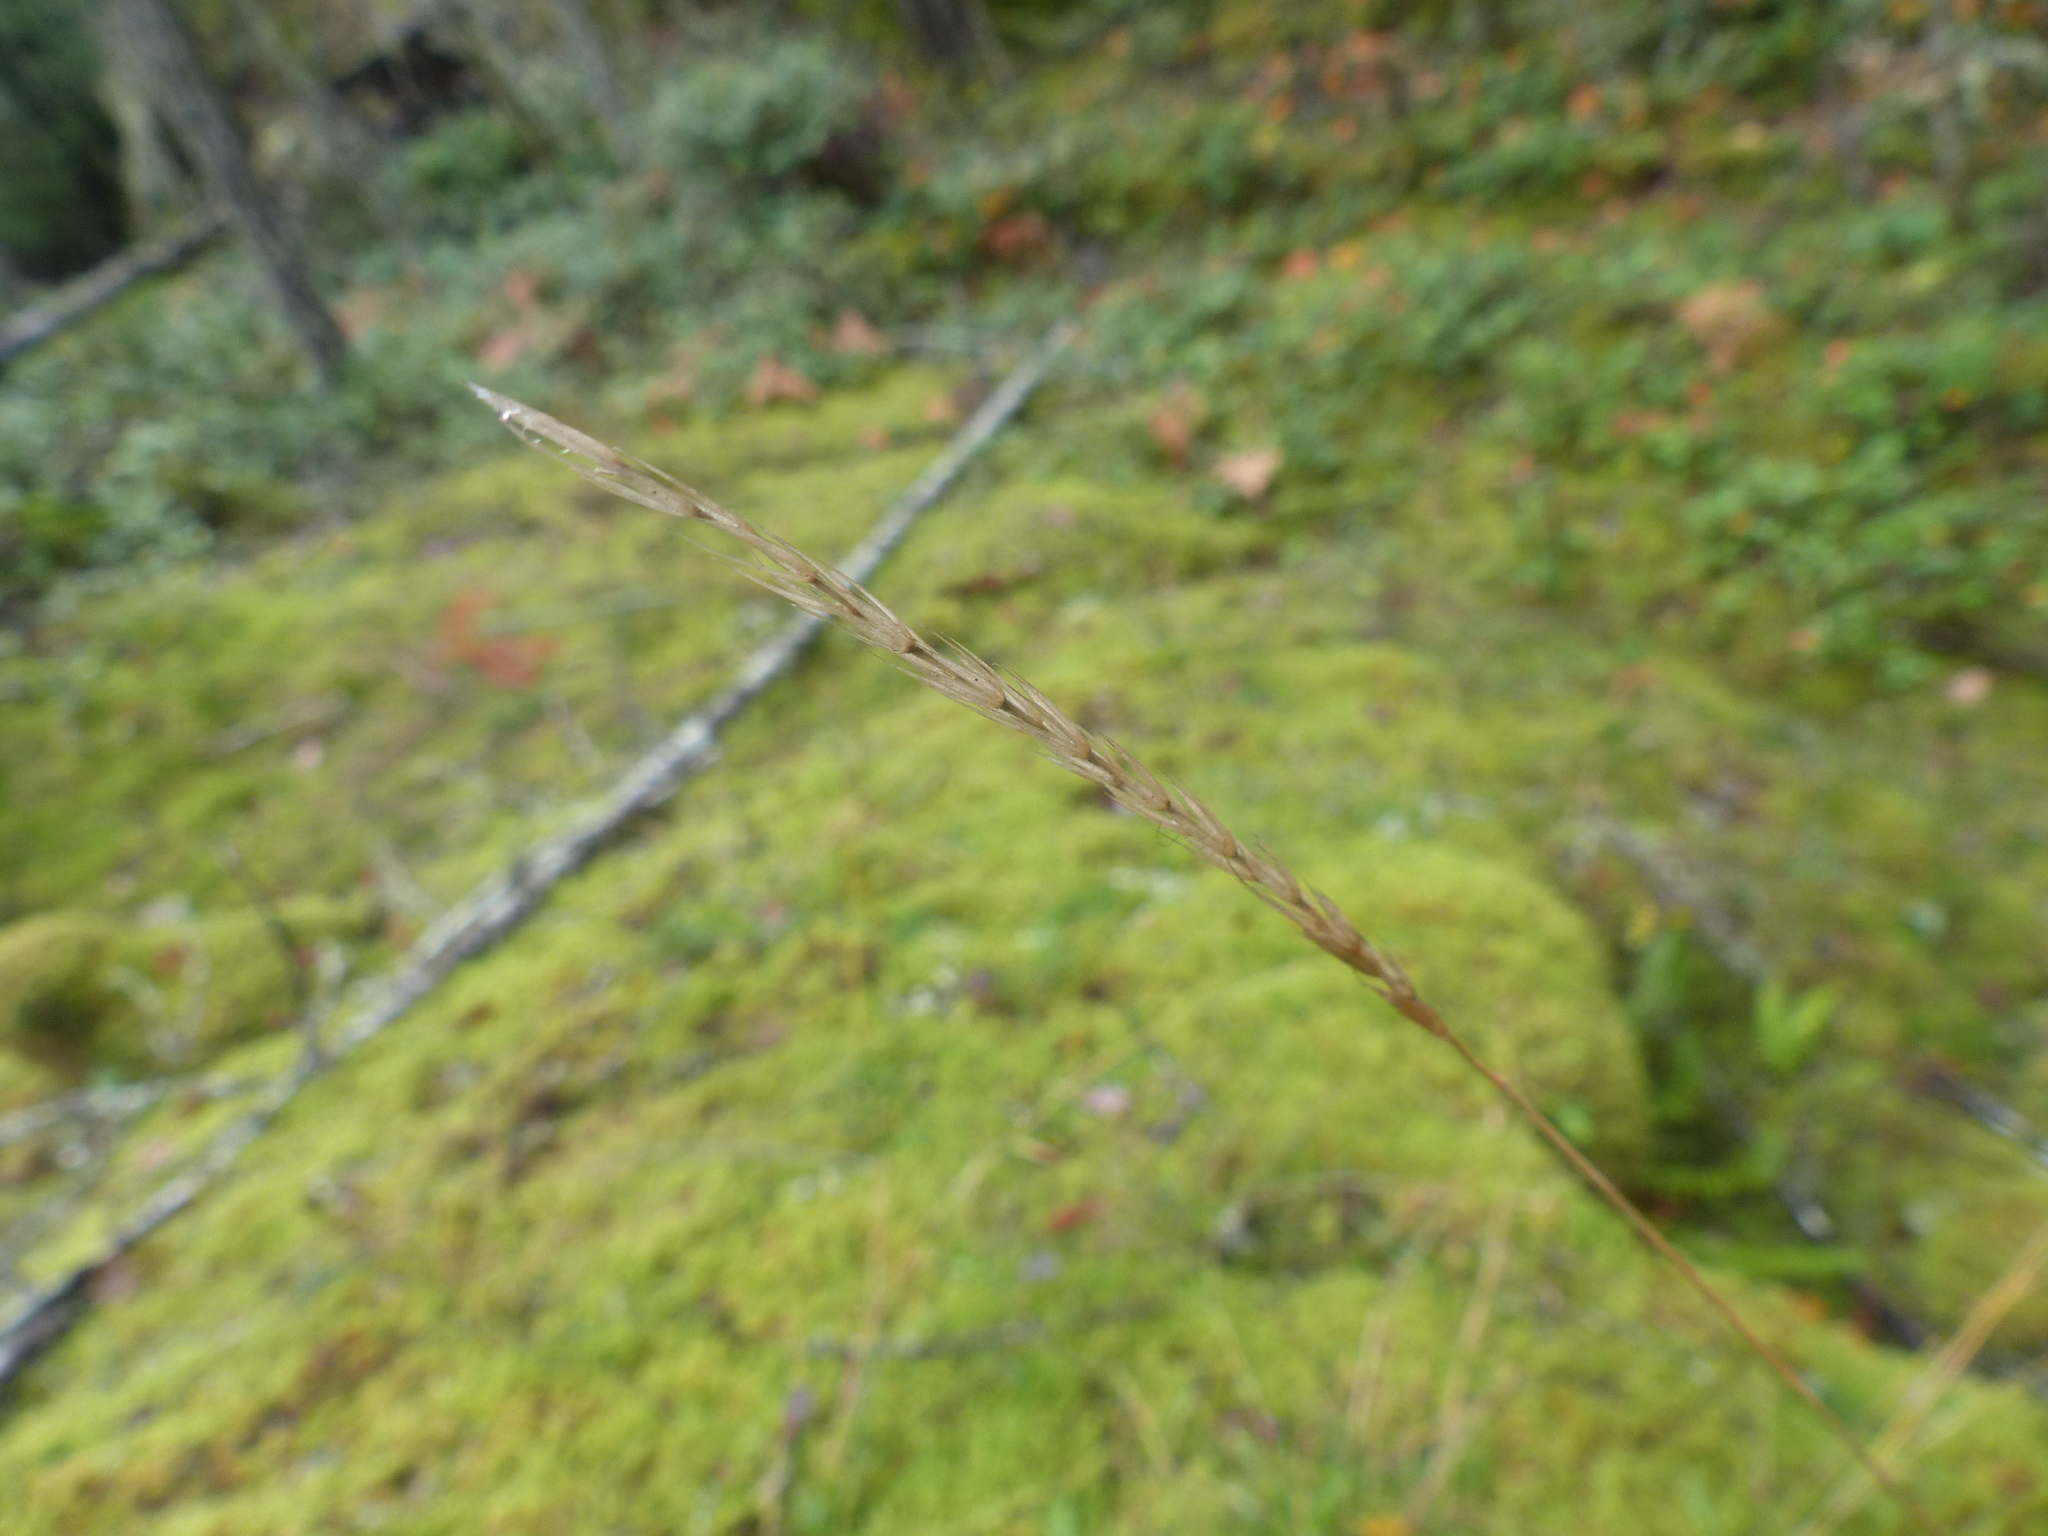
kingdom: Plantae
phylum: Tracheophyta
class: Liliopsida
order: Poales
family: Poaceae
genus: Elymus
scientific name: Elymus glaucus
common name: Blue wild rye
